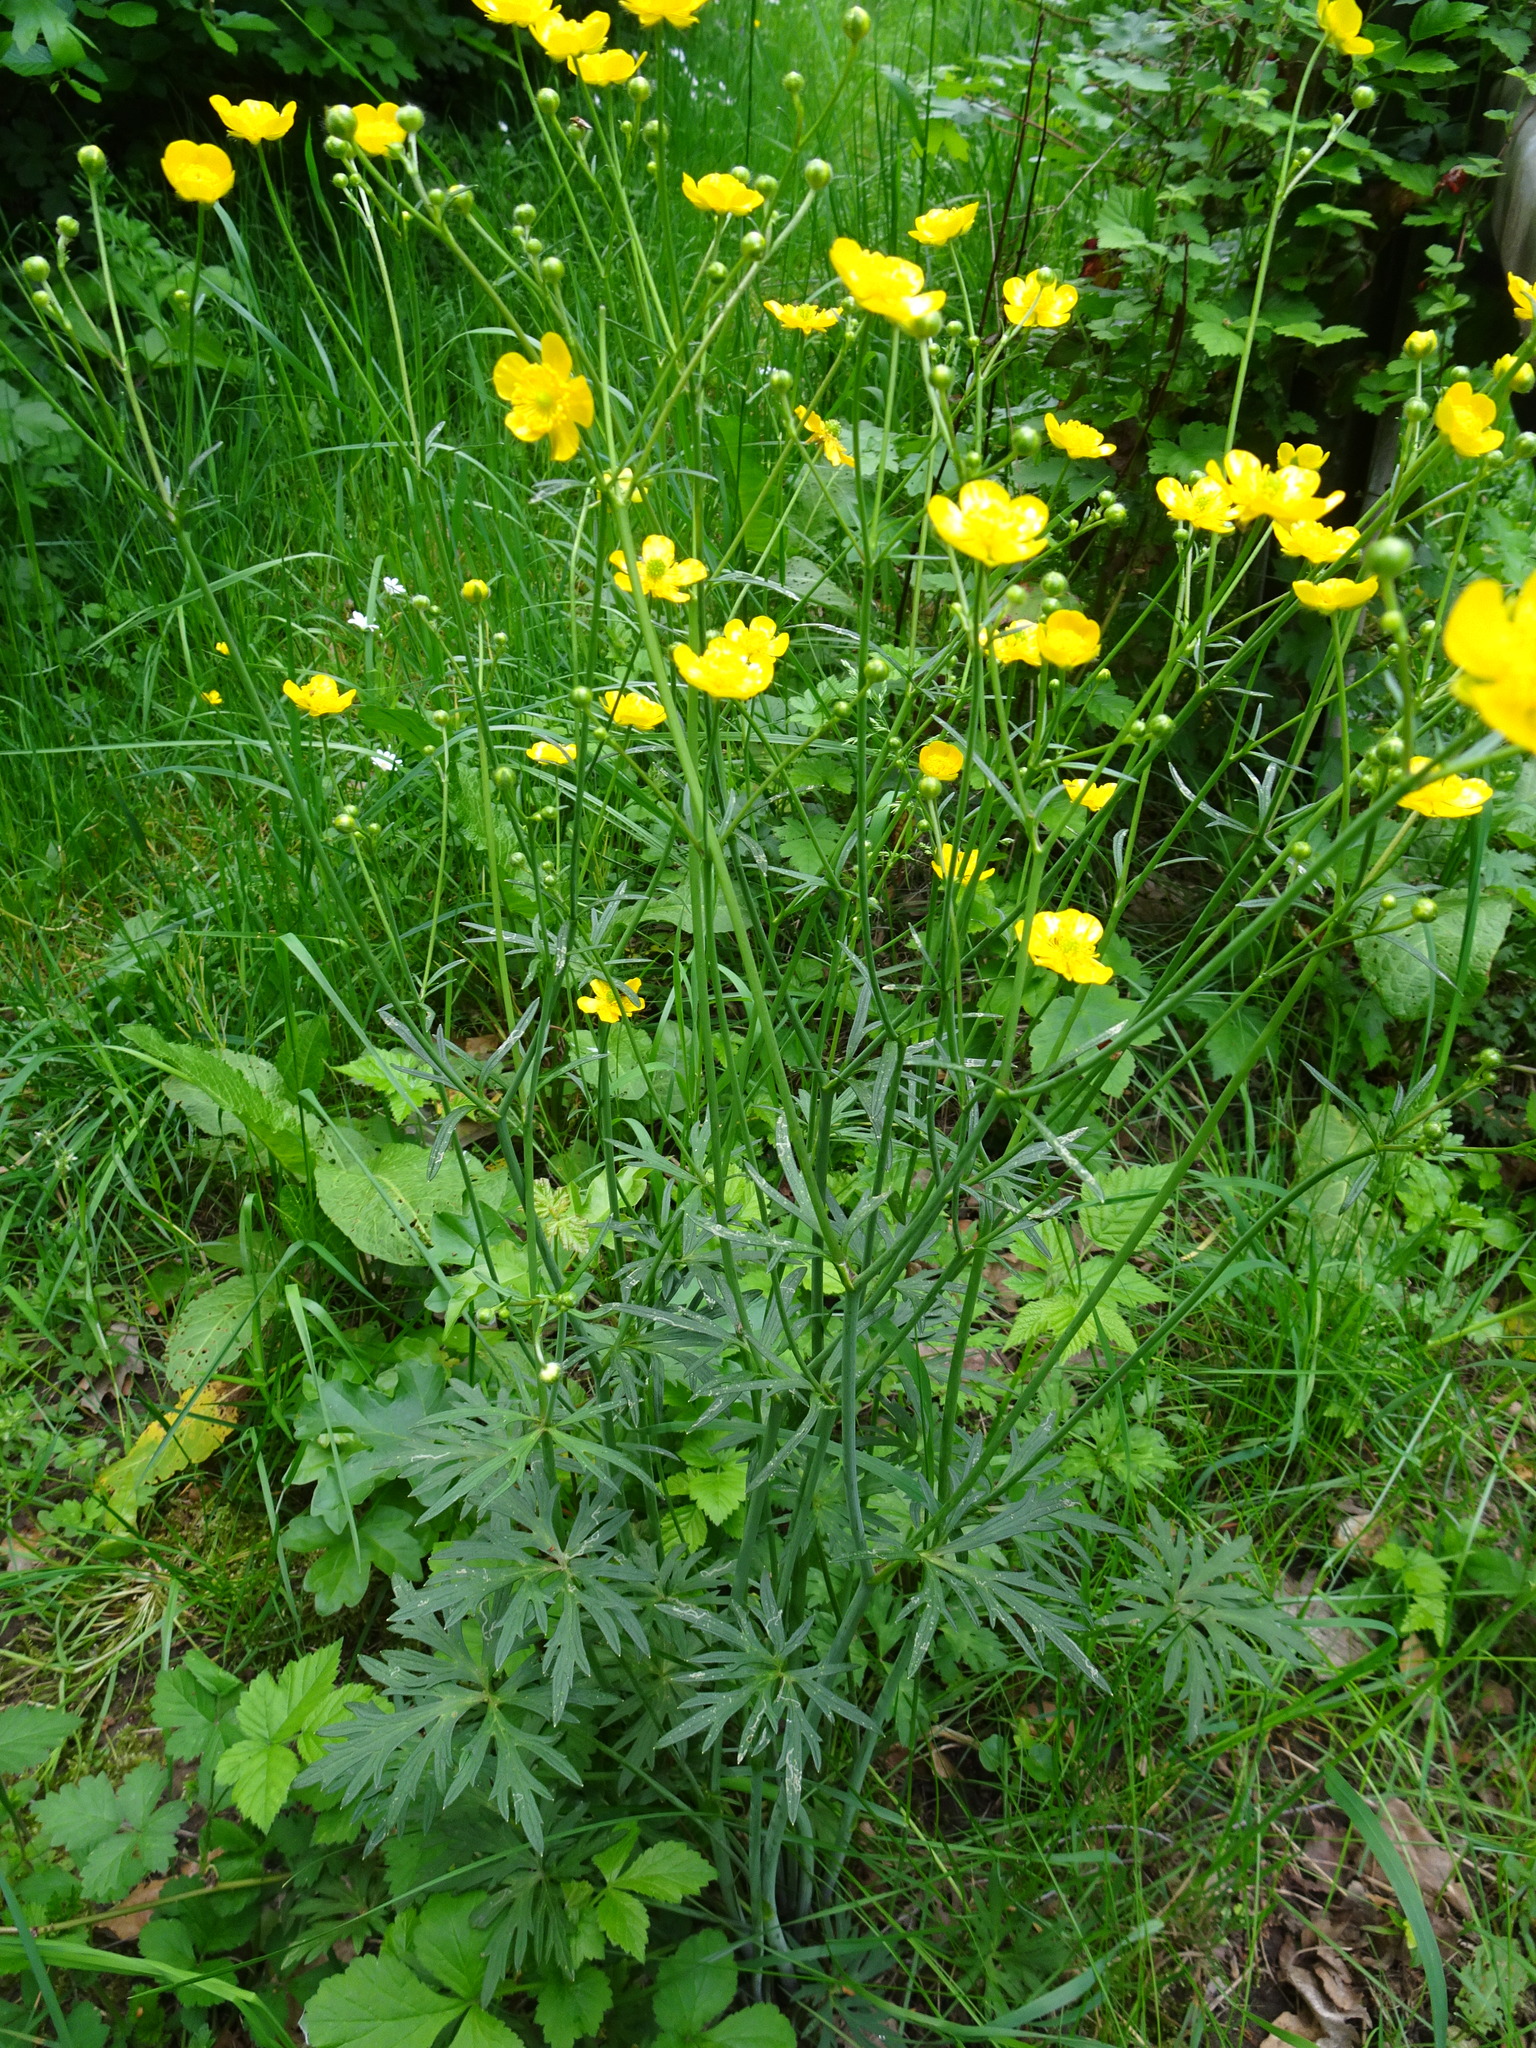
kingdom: Plantae
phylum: Tracheophyta
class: Magnoliopsida
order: Ranunculales
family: Ranunculaceae
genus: Ranunculus
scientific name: Ranunculus acris
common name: Meadow buttercup
